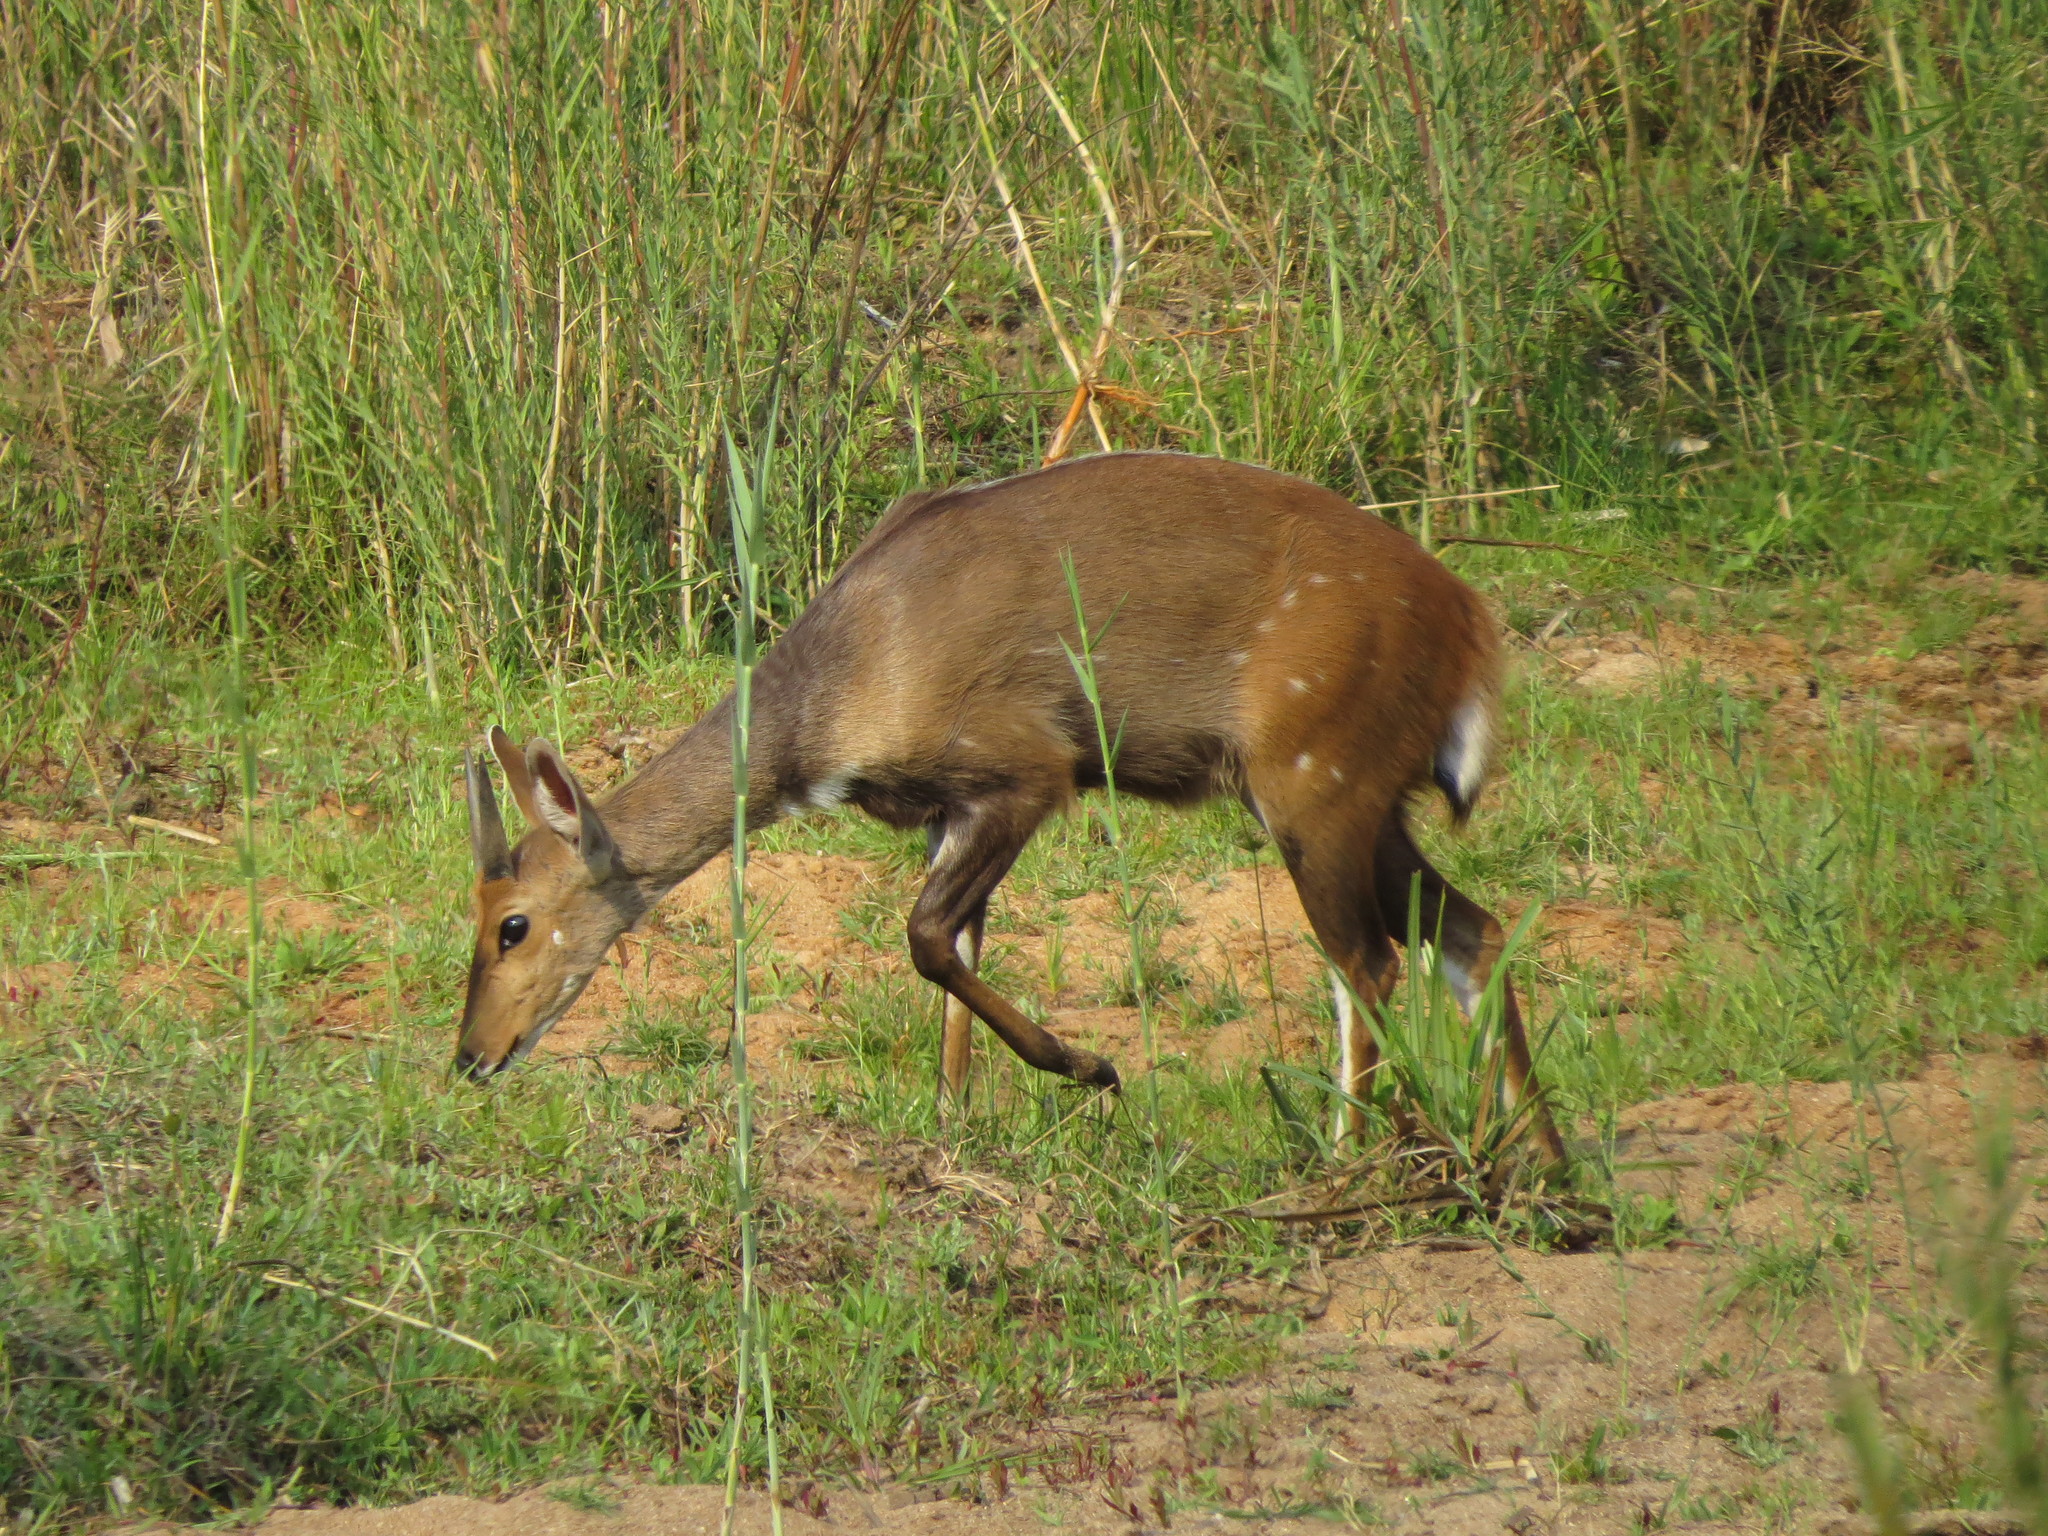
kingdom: Animalia
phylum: Chordata
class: Mammalia
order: Artiodactyla
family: Bovidae
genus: Tragelaphus
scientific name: Tragelaphus scriptus
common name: Bushbuck
